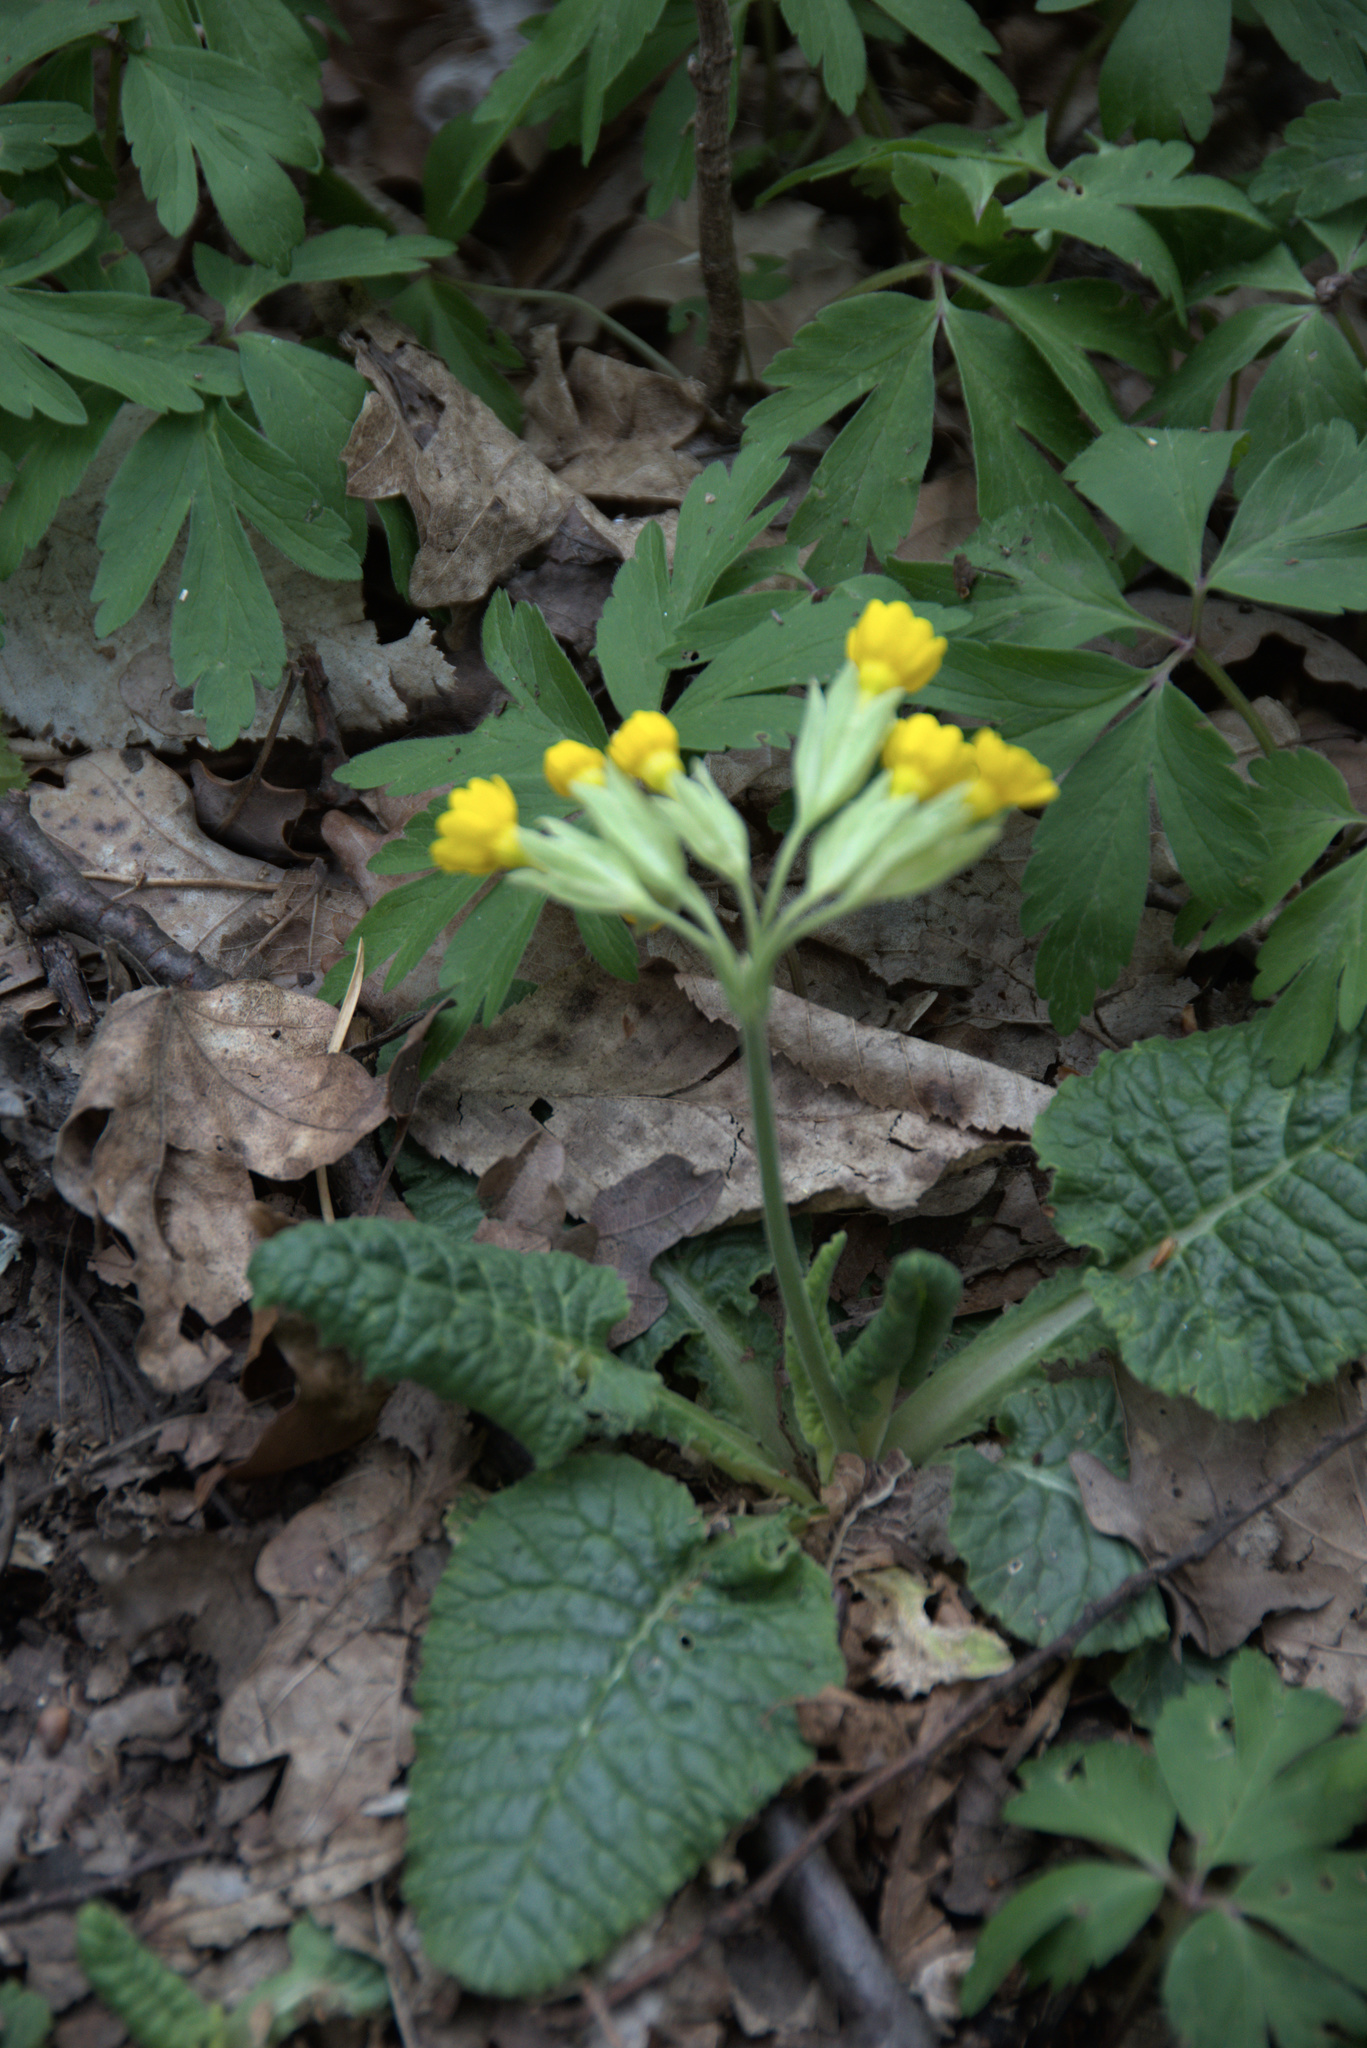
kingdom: Plantae
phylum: Tracheophyta
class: Magnoliopsida
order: Ericales
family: Primulaceae
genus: Primula
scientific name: Primula veris
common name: Cowslip
